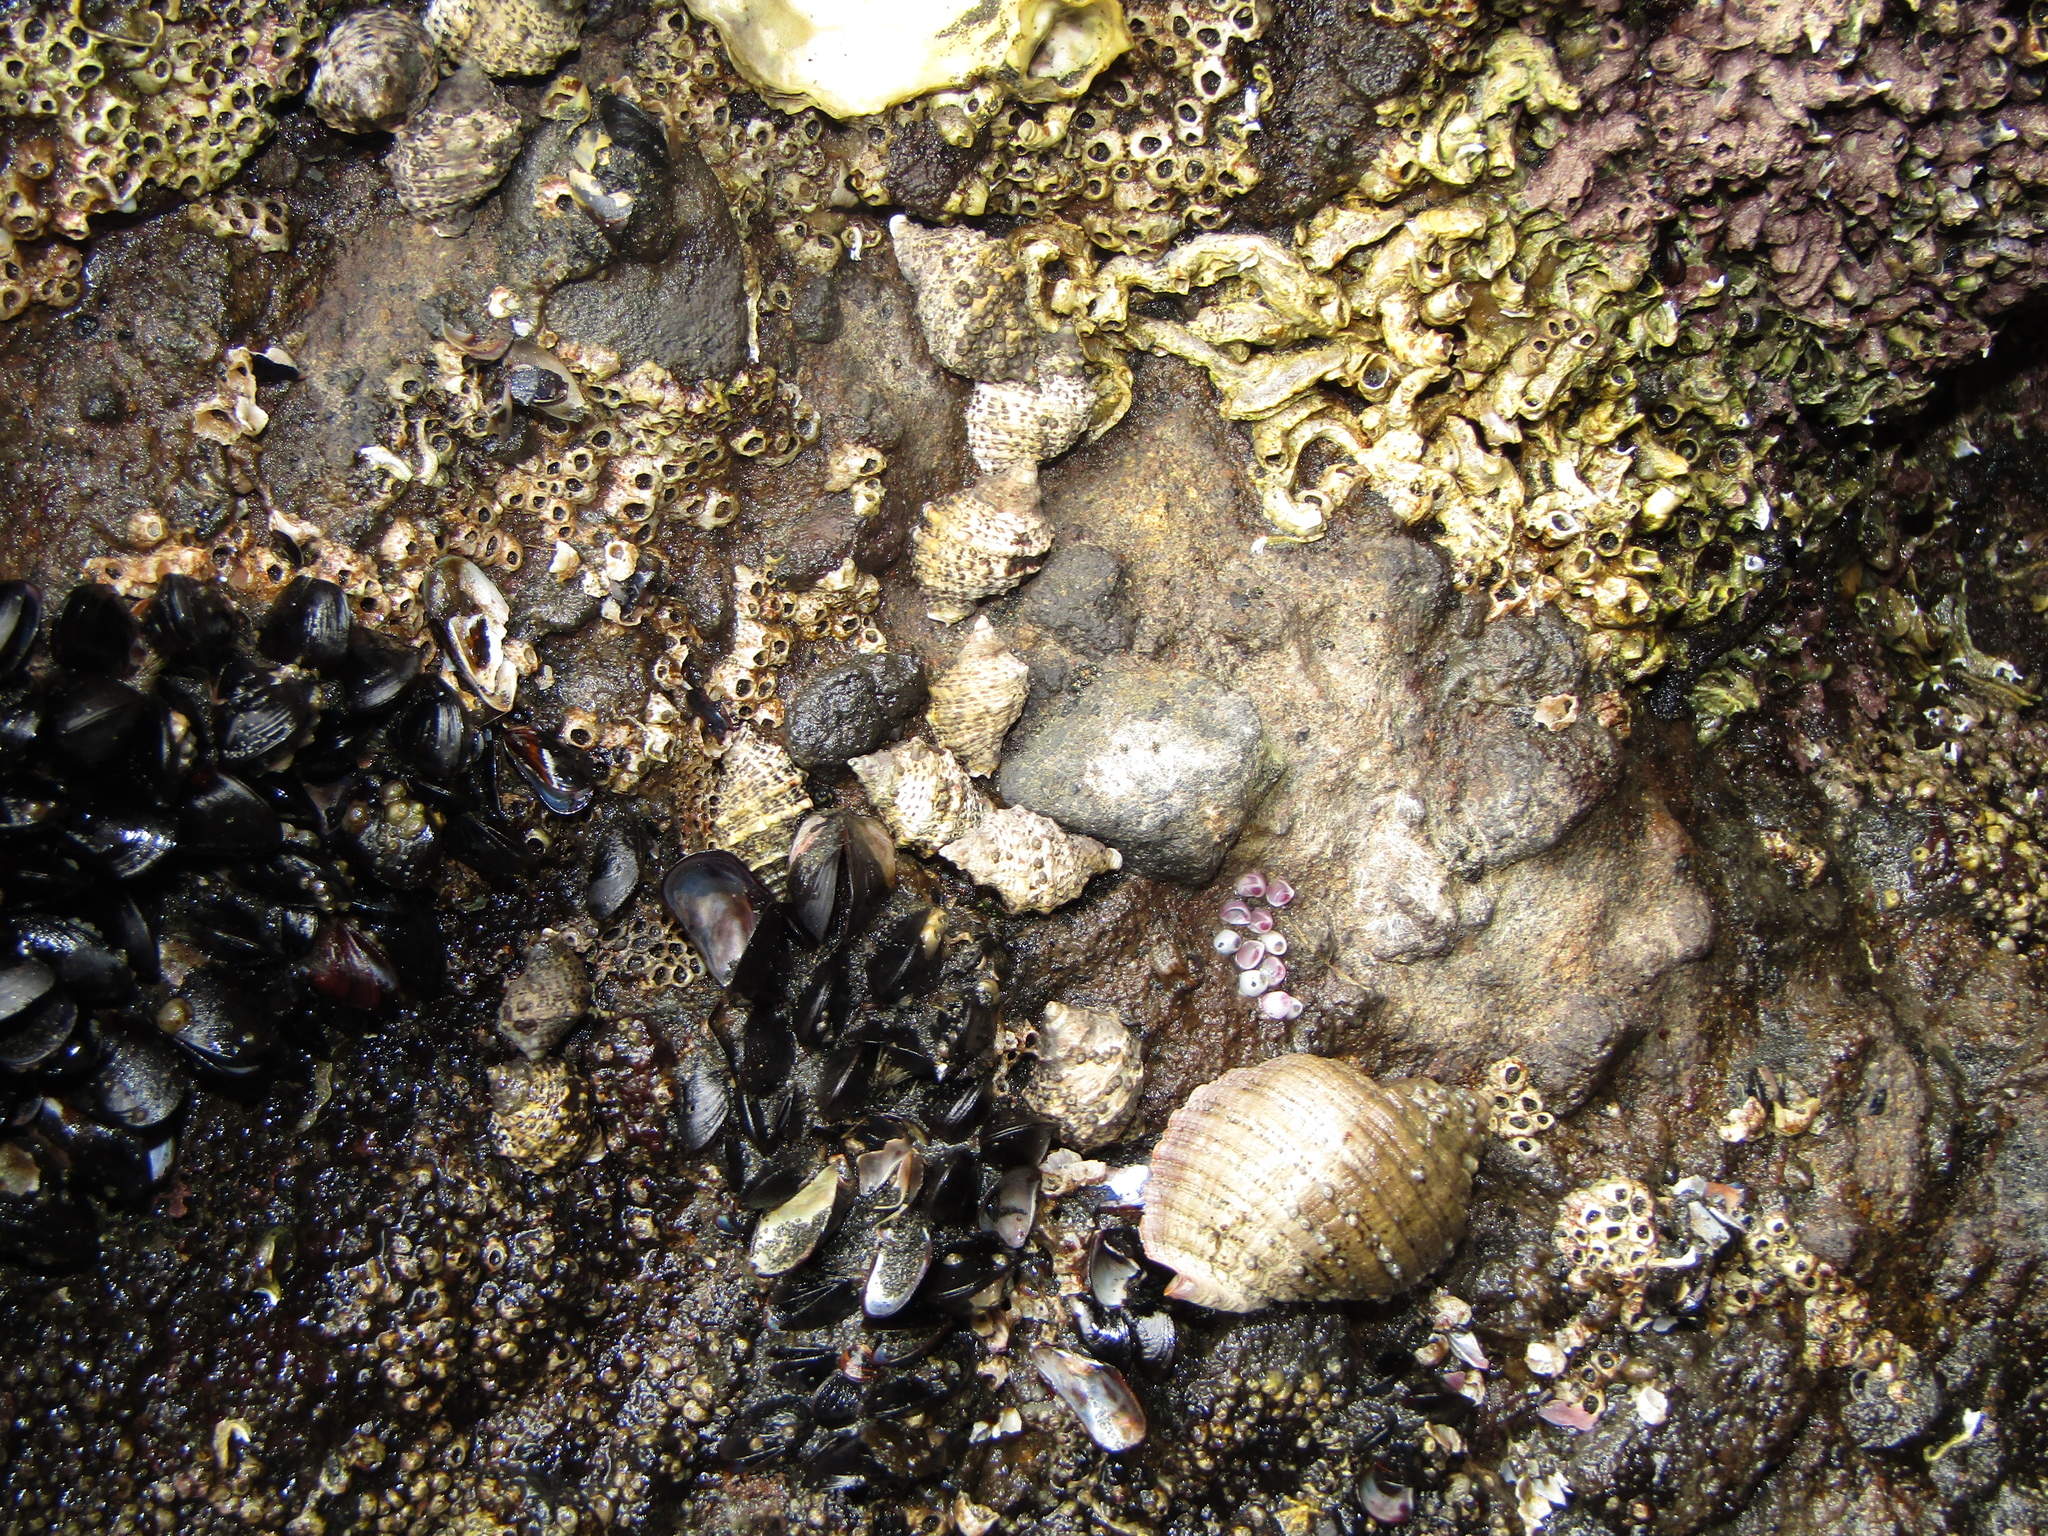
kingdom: Animalia
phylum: Mollusca
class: Gastropoda
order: Neogastropoda
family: Muricidae
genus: Haustrum
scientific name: Haustrum scobina
